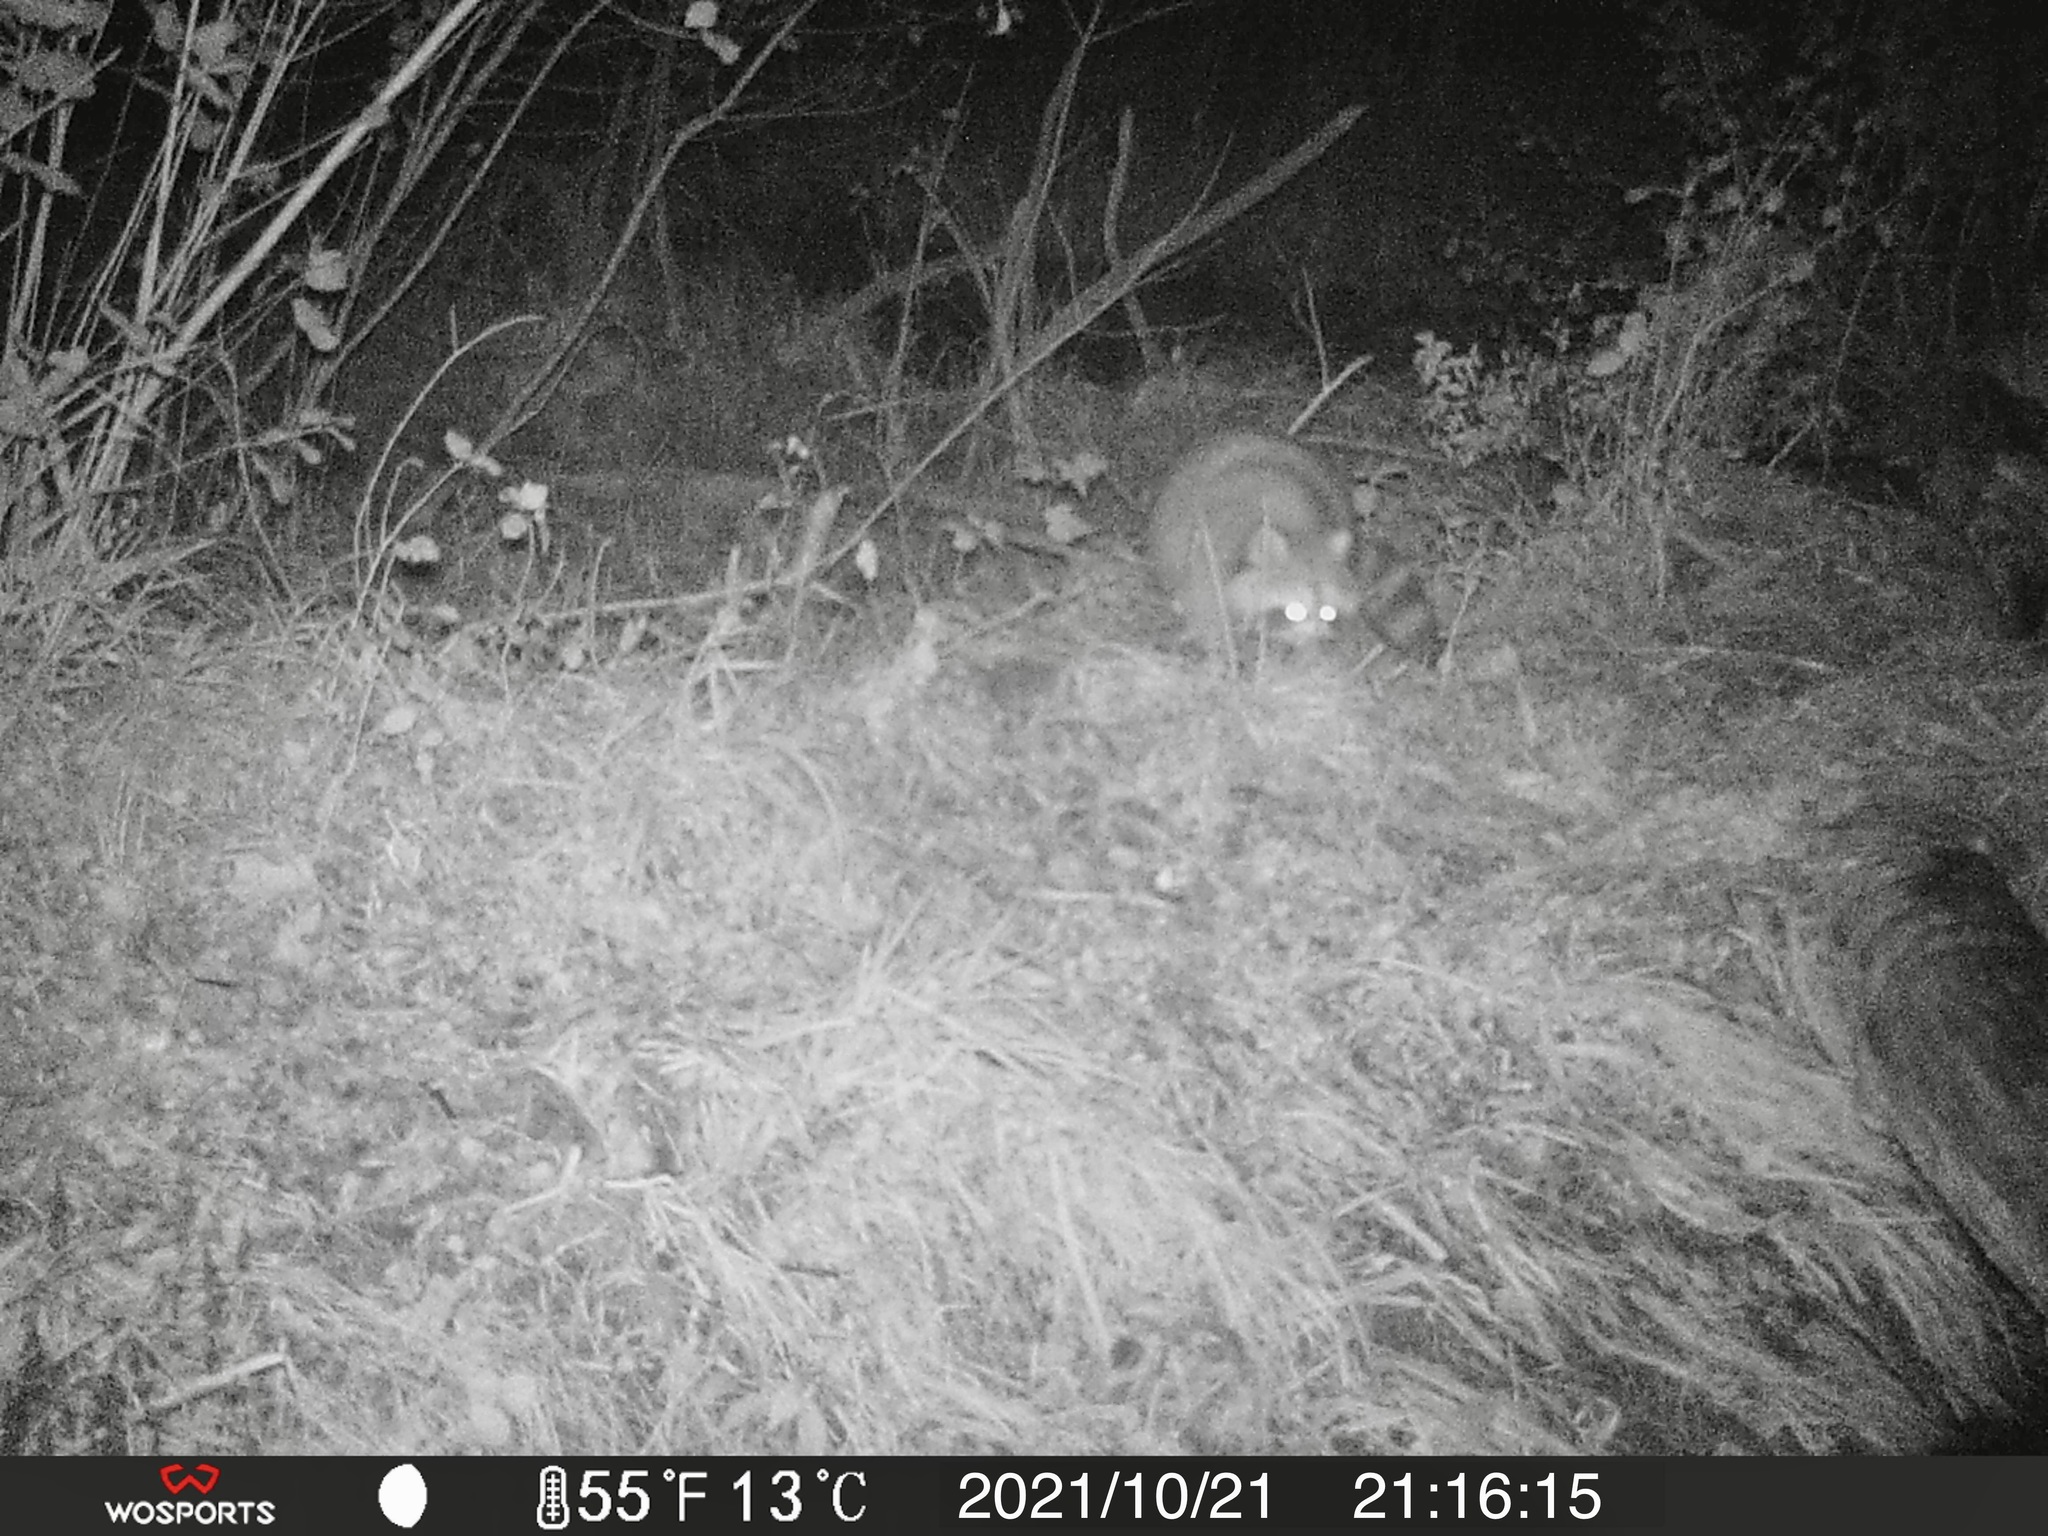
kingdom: Animalia
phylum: Chordata
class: Mammalia
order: Carnivora
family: Procyonidae
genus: Procyon
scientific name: Procyon lotor
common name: Raccoon
